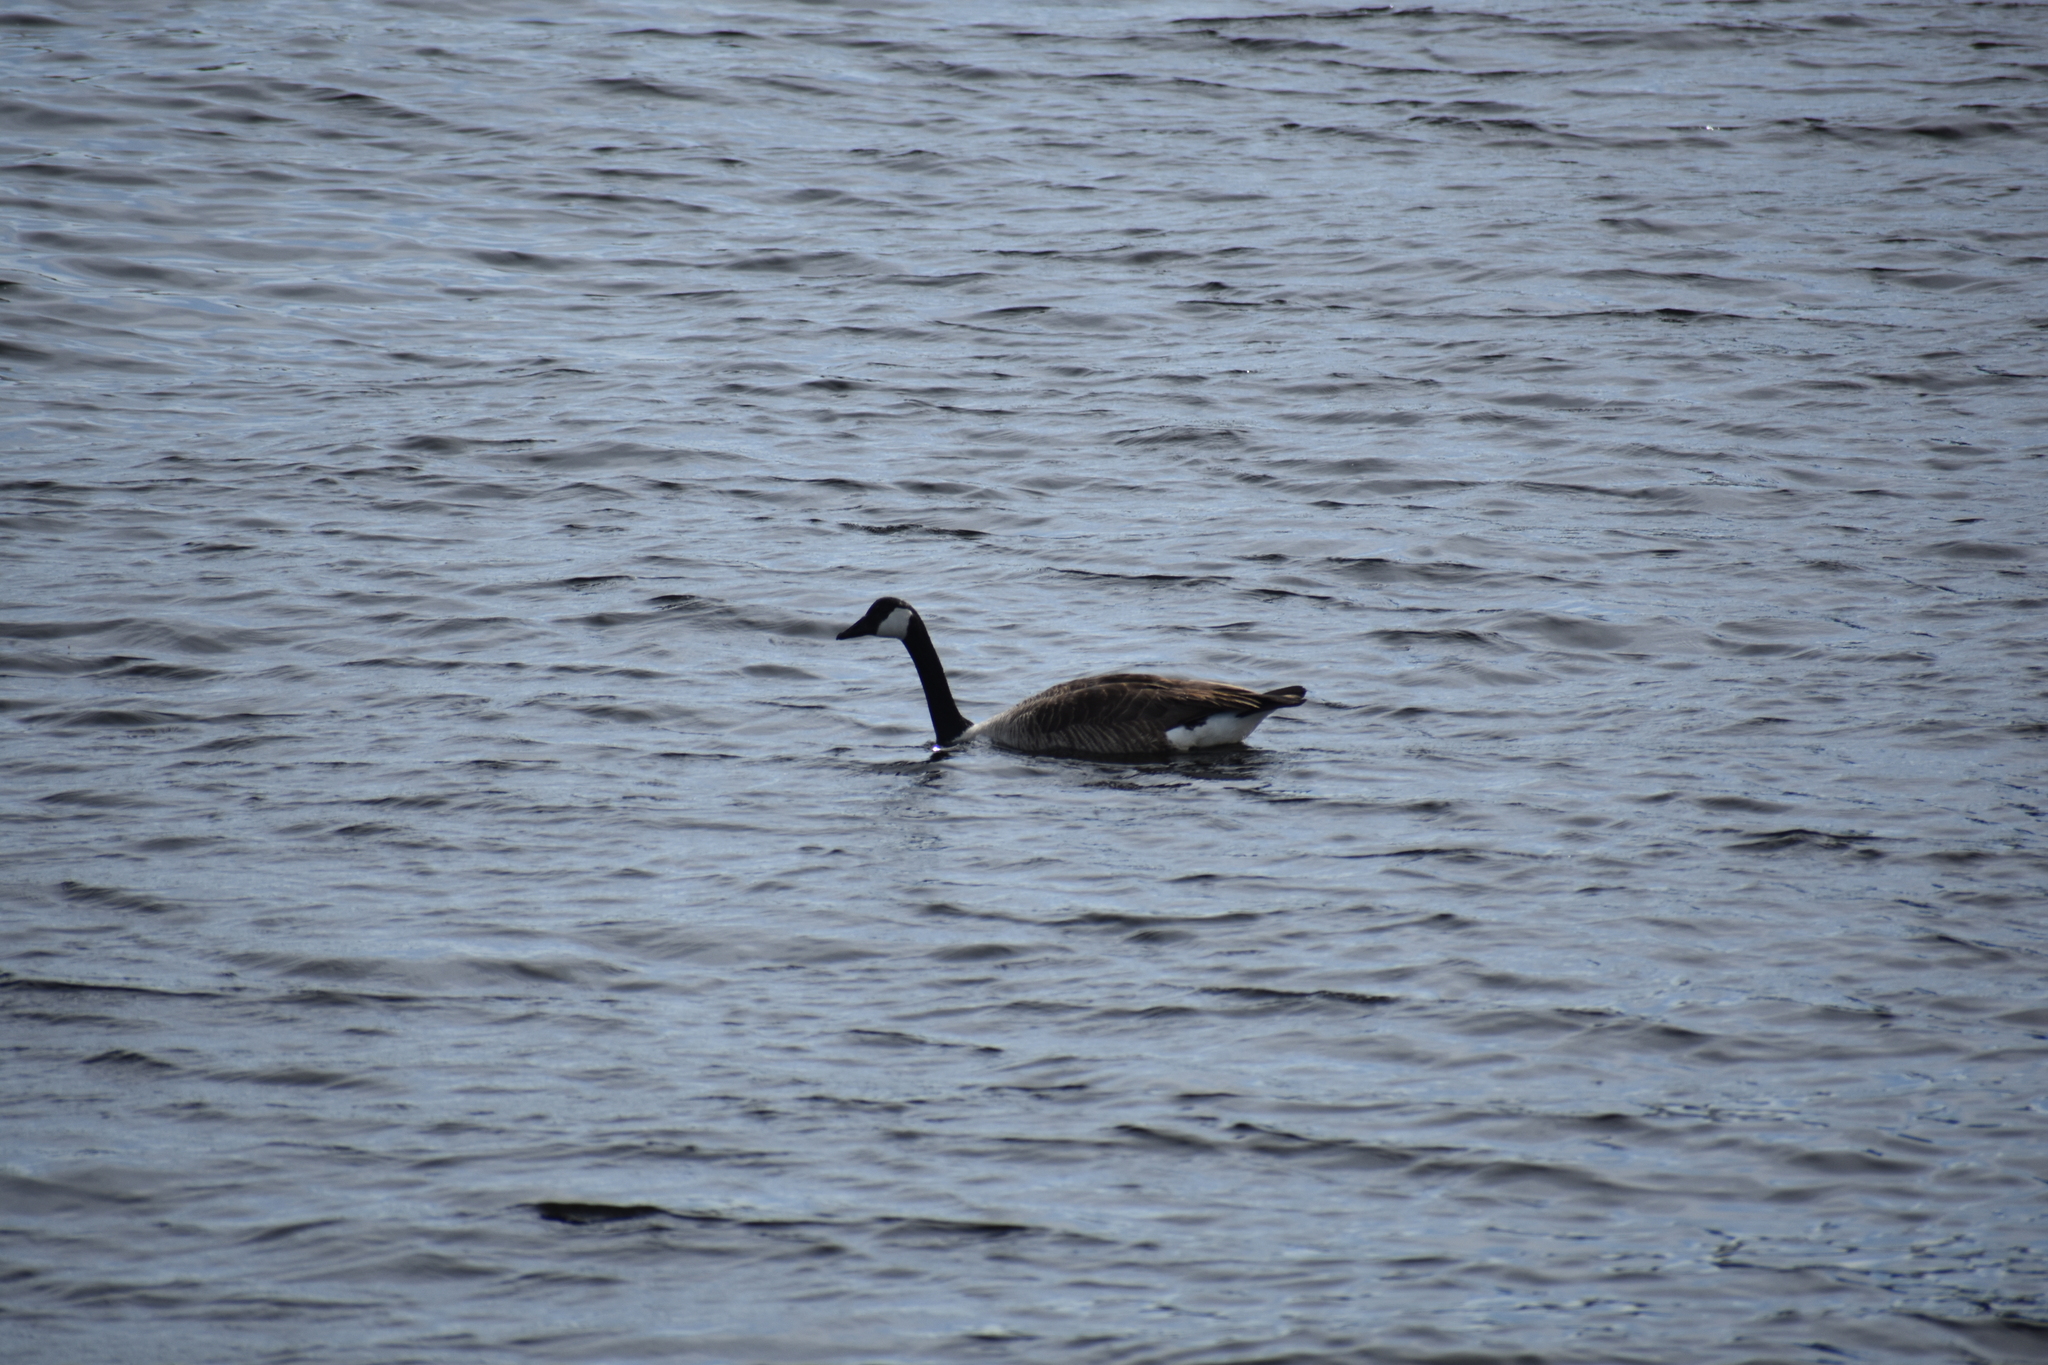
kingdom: Animalia
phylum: Chordata
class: Aves
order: Anseriformes
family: Anatidae
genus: Branta
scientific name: Branta canadensis
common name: Canada goose
